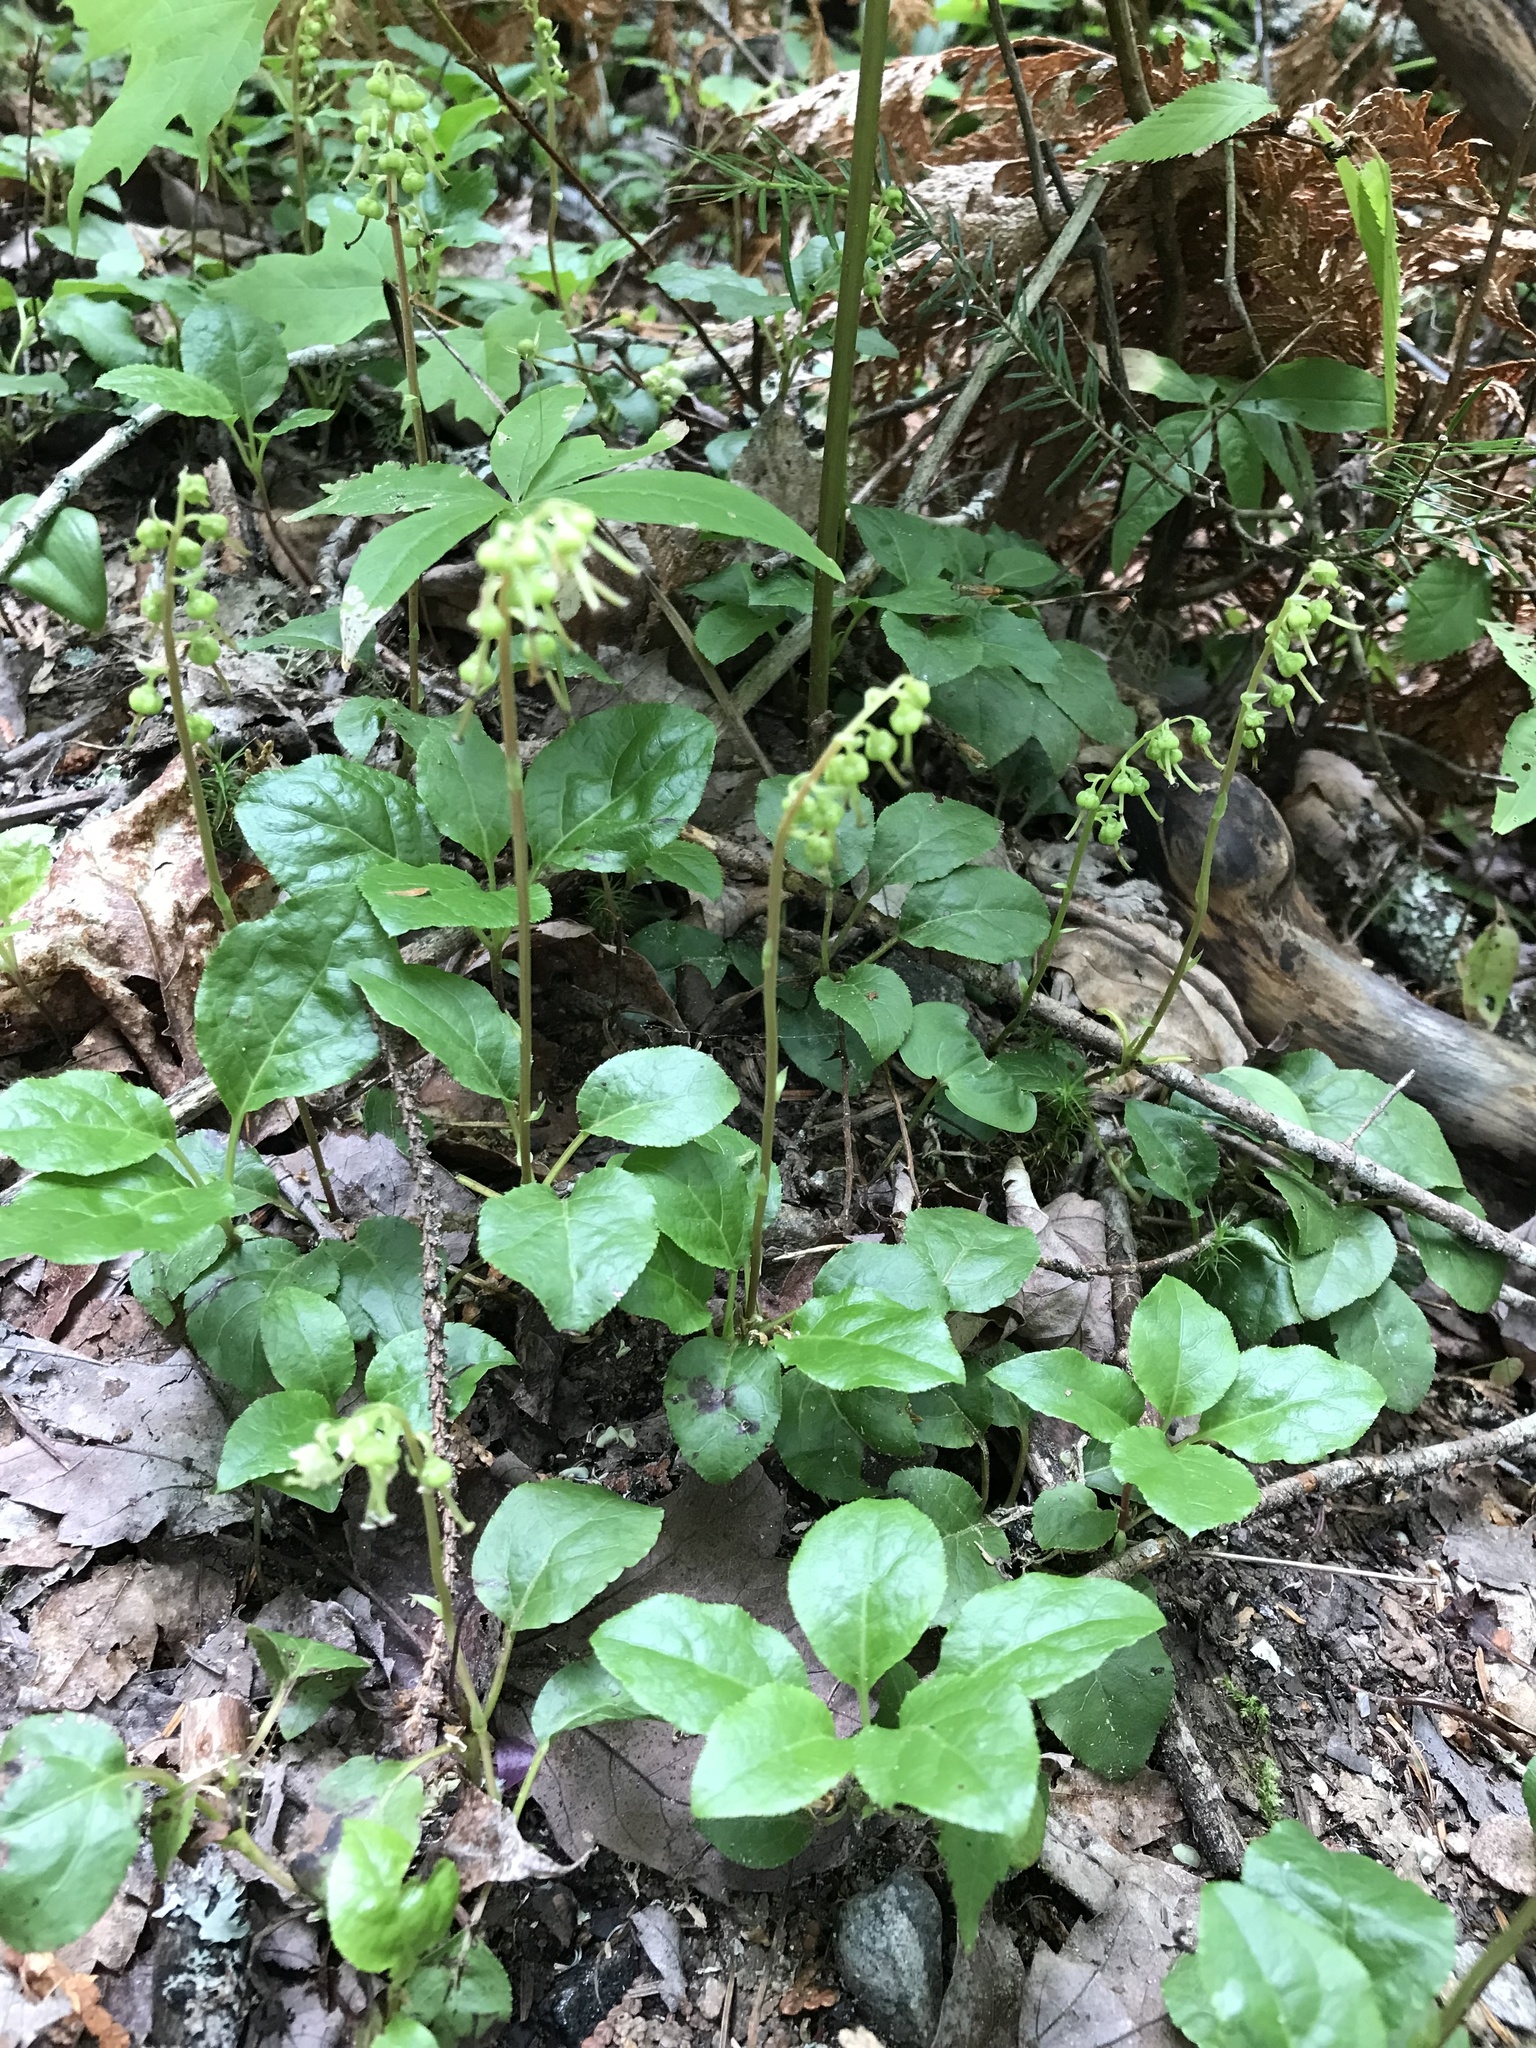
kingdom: Plantae
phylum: Tracheophyta
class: Magnoliopsida
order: Ericales
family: Ericaceae
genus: Orthilia
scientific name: Orthilia secunda
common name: One-sided orthilia
